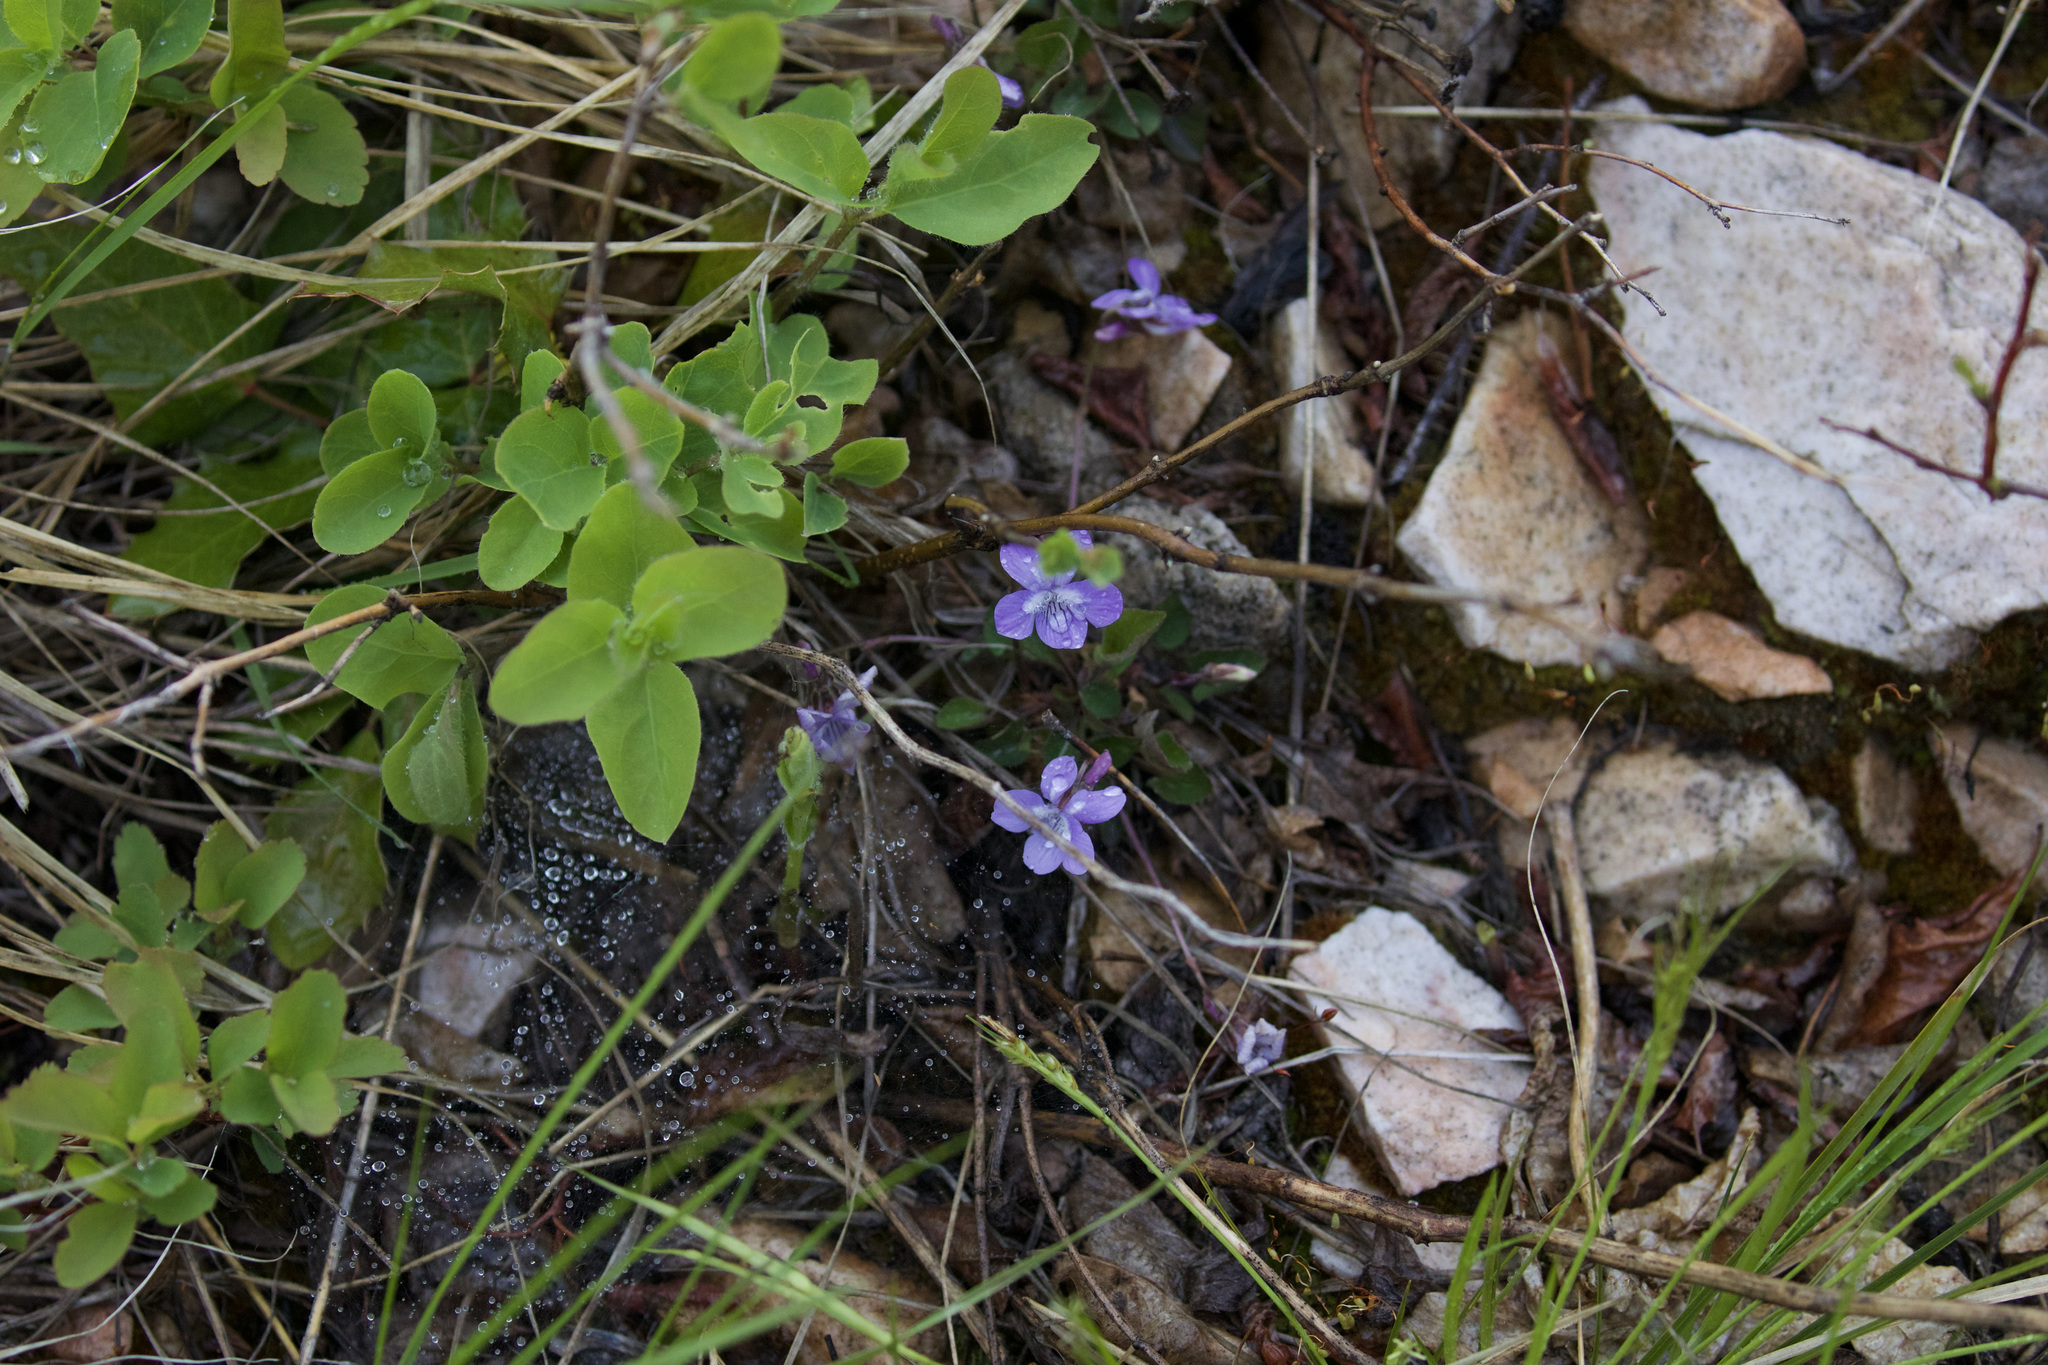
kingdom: Plantae
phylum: Tracheophyta
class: Magnoliopsida
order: Malpighiales
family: Violaceae
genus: Viola
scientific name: Viola adunca
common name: Sand violet
